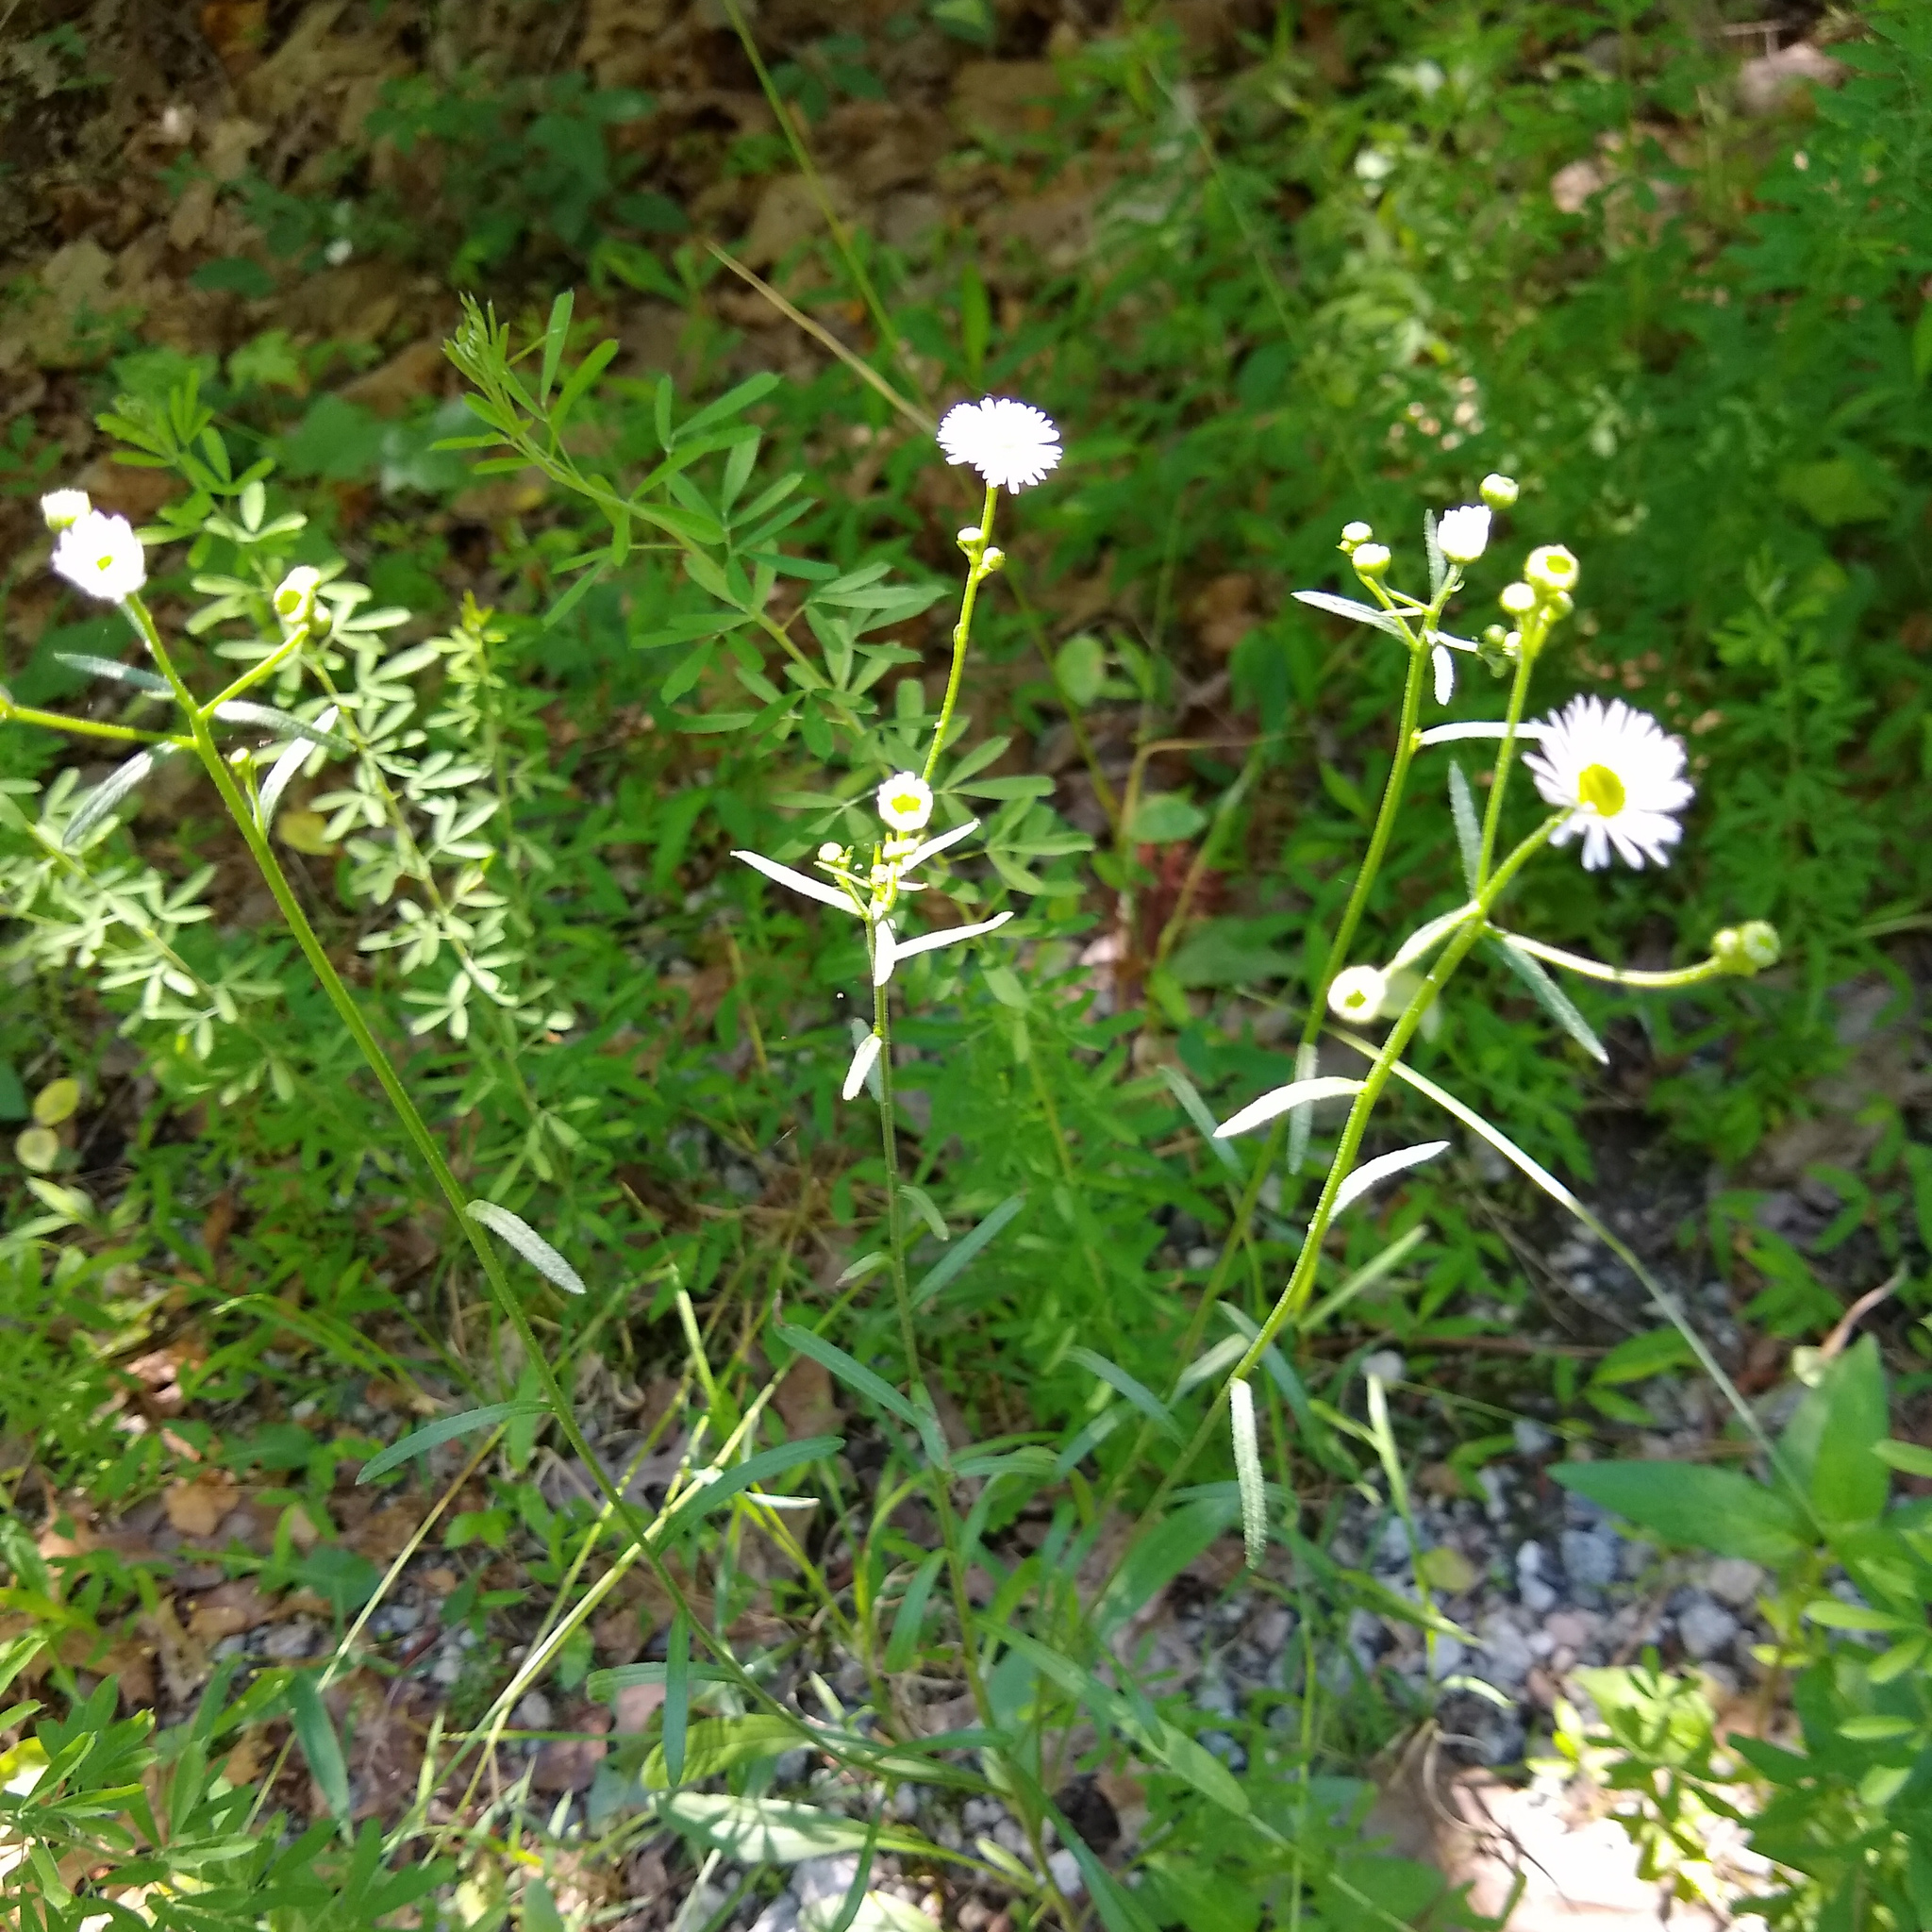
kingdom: Plantae
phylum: Tracheophyta
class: Magnoliopsida
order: Asterales
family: Asteraceae
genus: Erigeron
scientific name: Erigeron strigosus
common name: Common eastern fleabane
